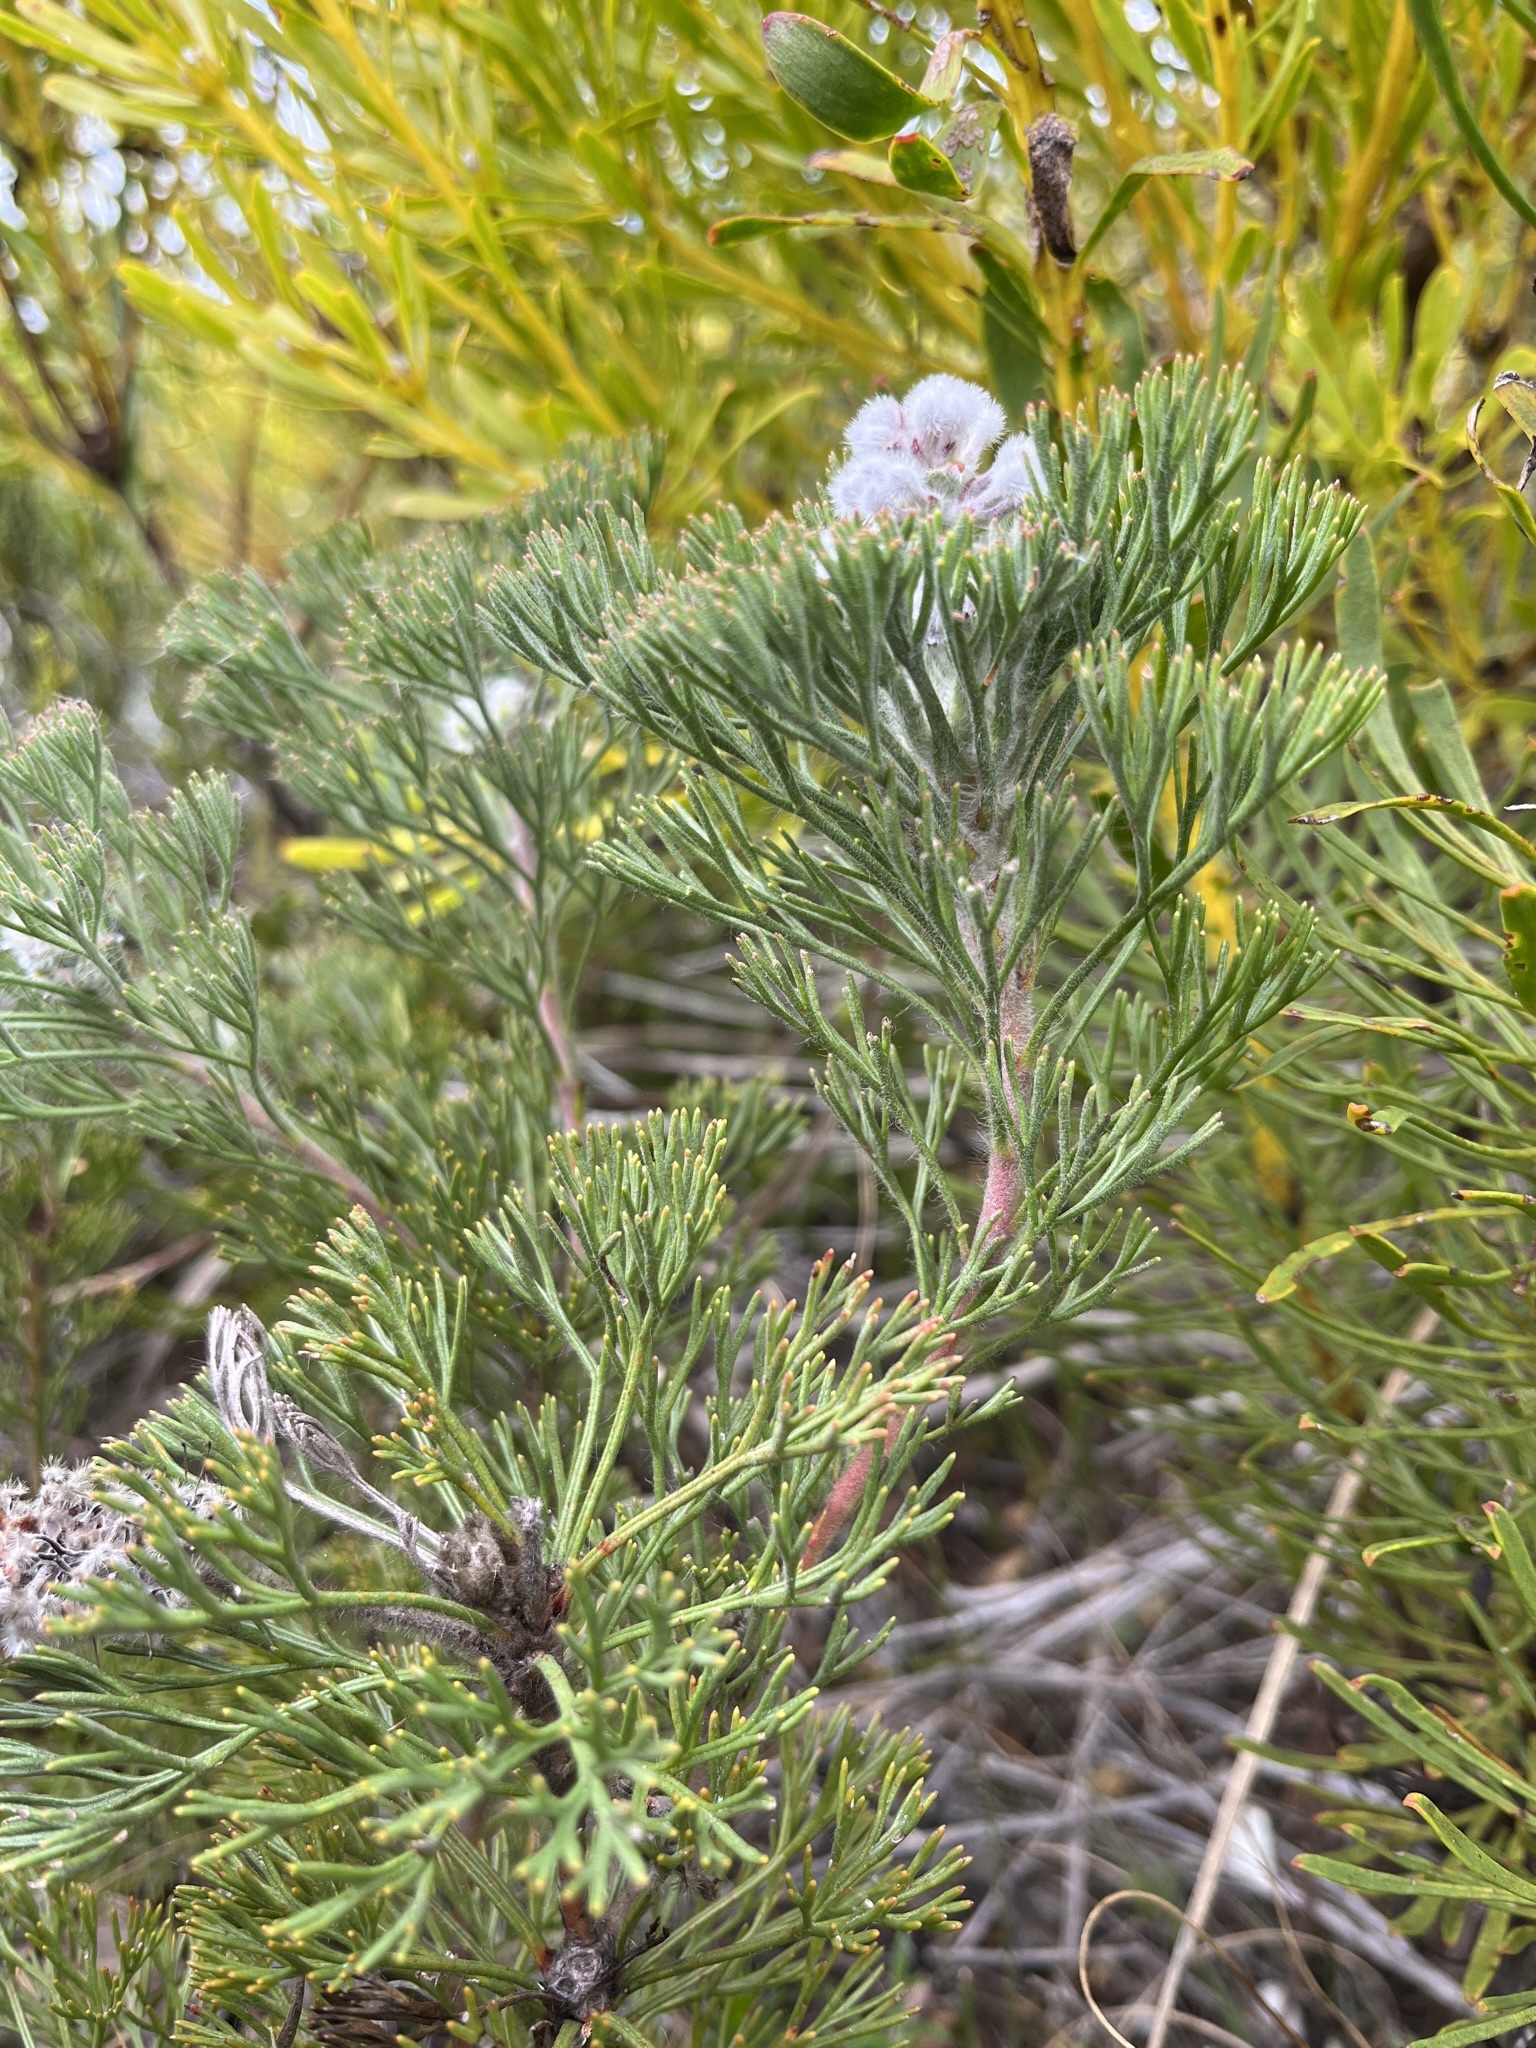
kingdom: Plantae
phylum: Tracheophyta
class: Magnoliopsida
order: Proteales
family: Proteaceae
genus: Paranomus
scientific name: Paranomus abrotanifolius
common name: Bredasdorp sceptre
